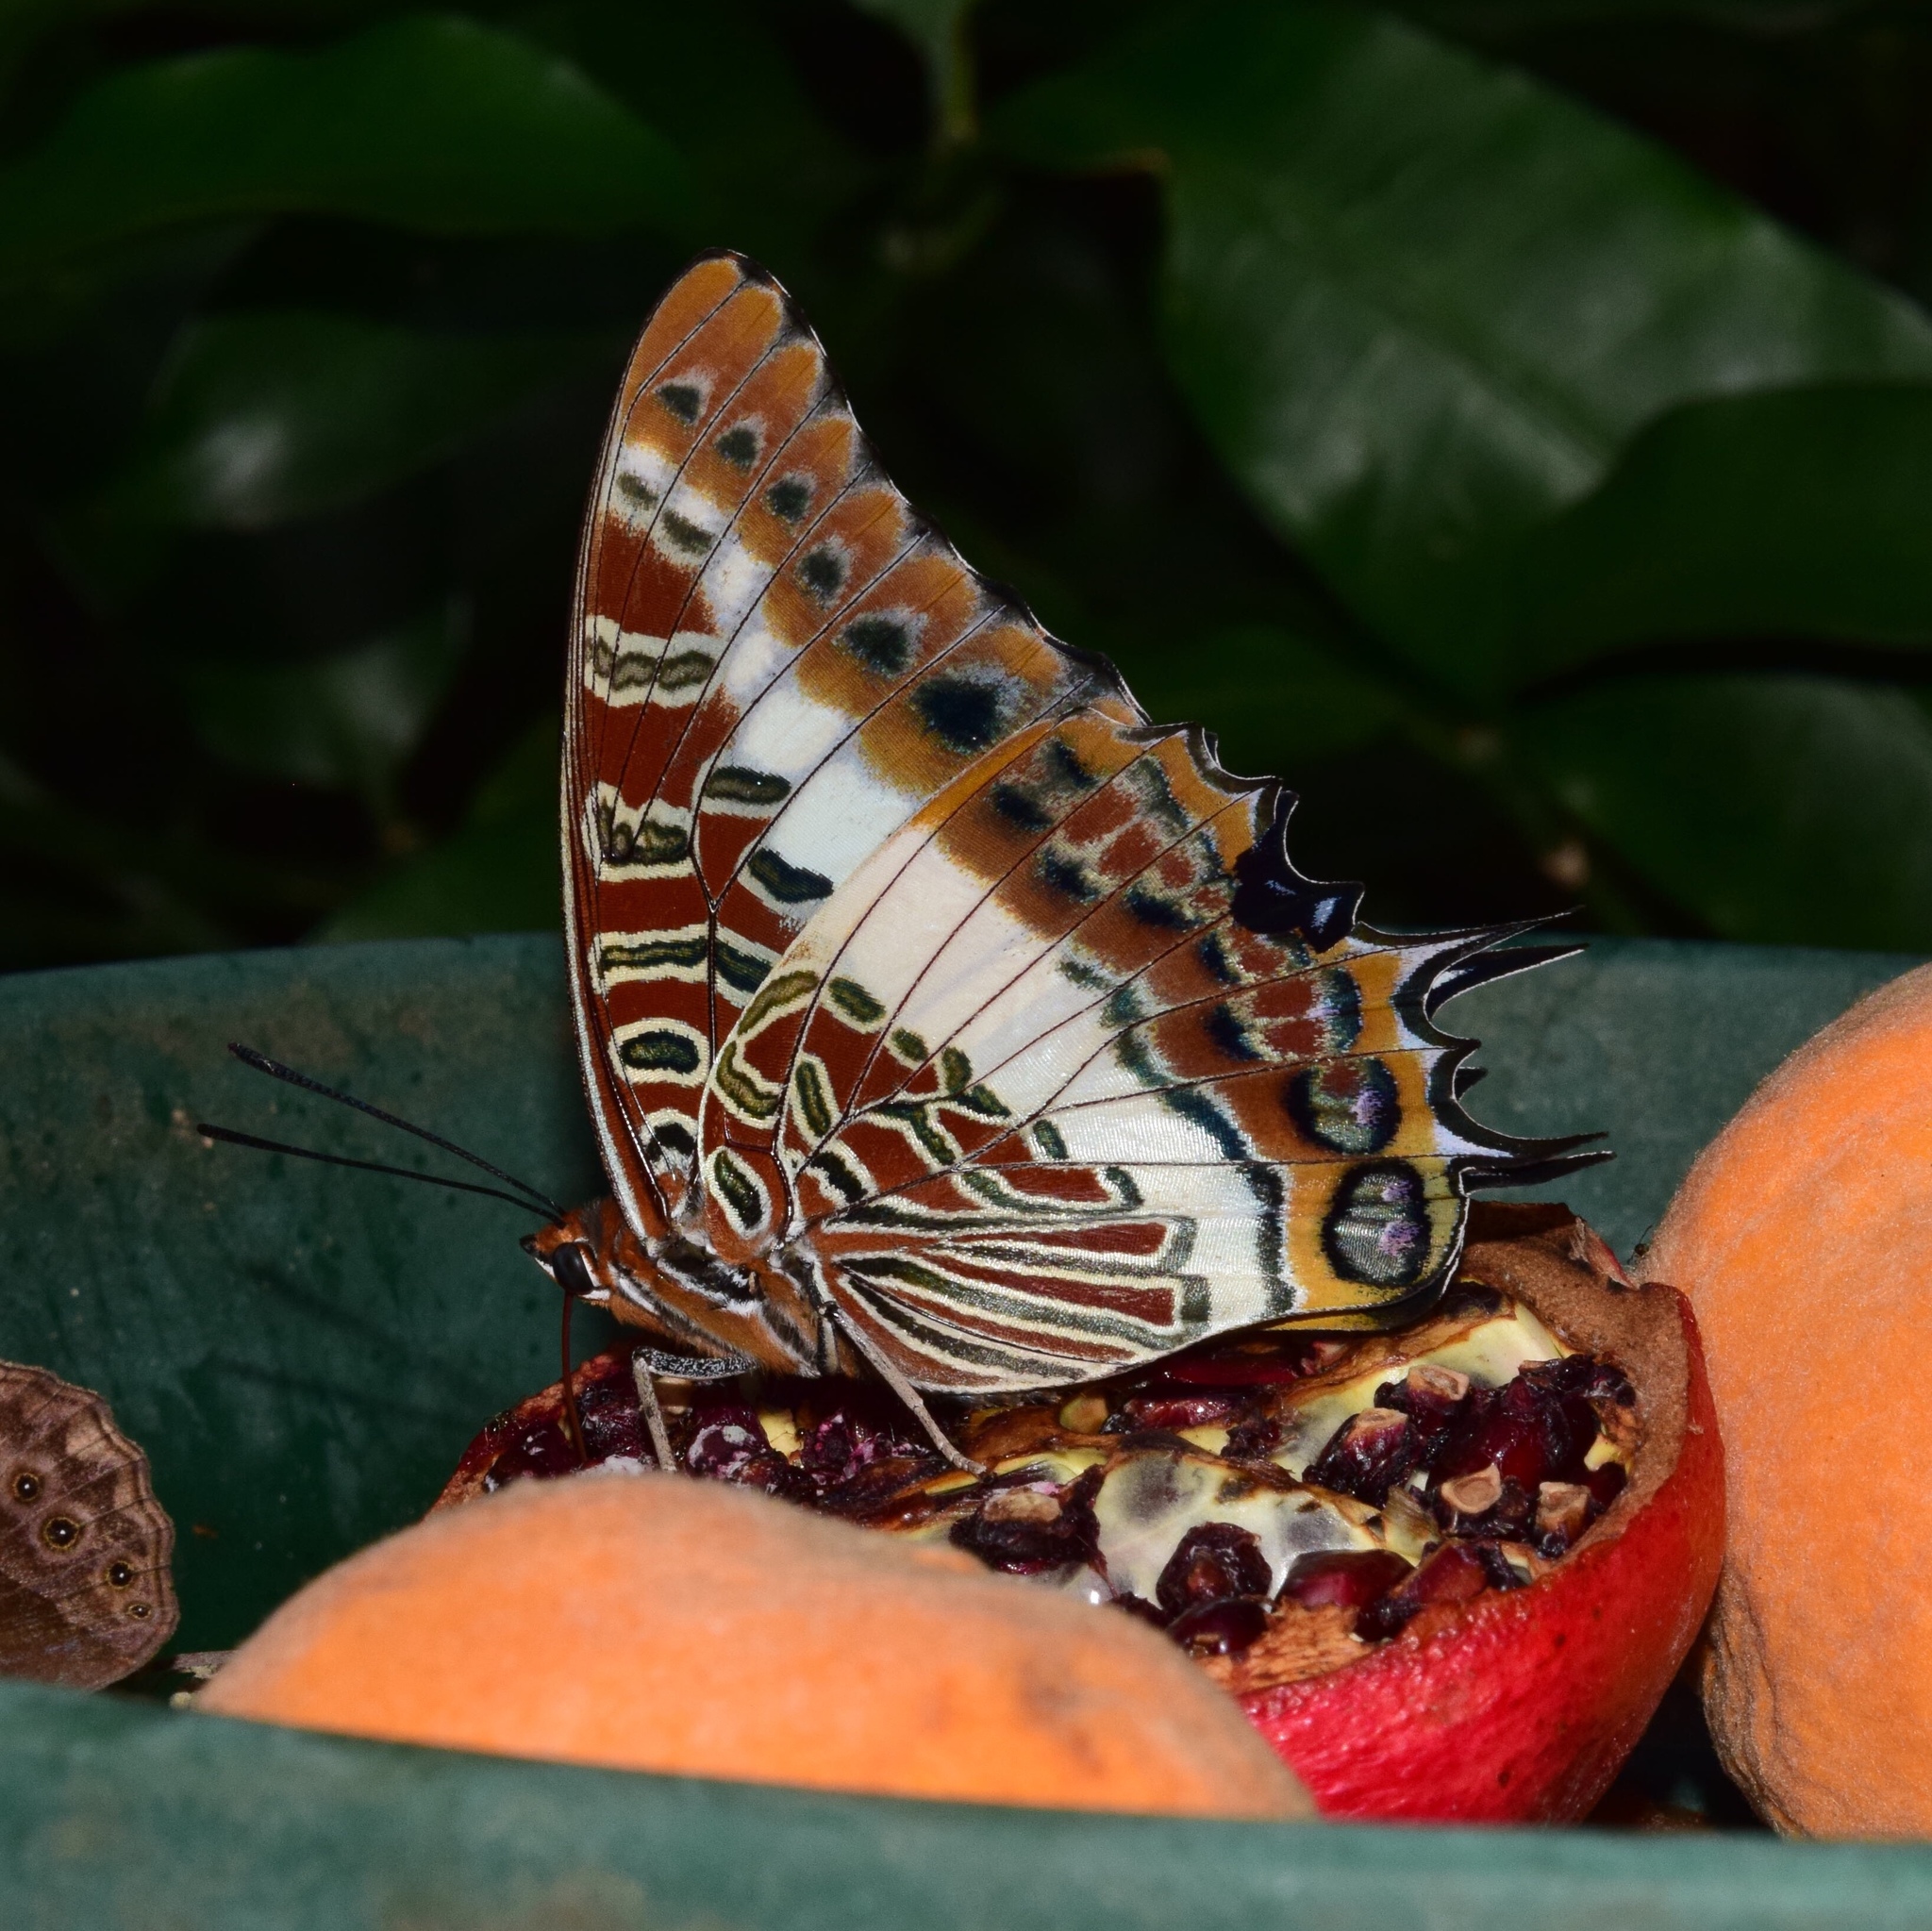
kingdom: Animalia
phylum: Arthropoda
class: Insecta
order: Lepidoptera
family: Nymphalidae
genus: Charaxes
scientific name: Charaxes brutus
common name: White-barred charaxes
